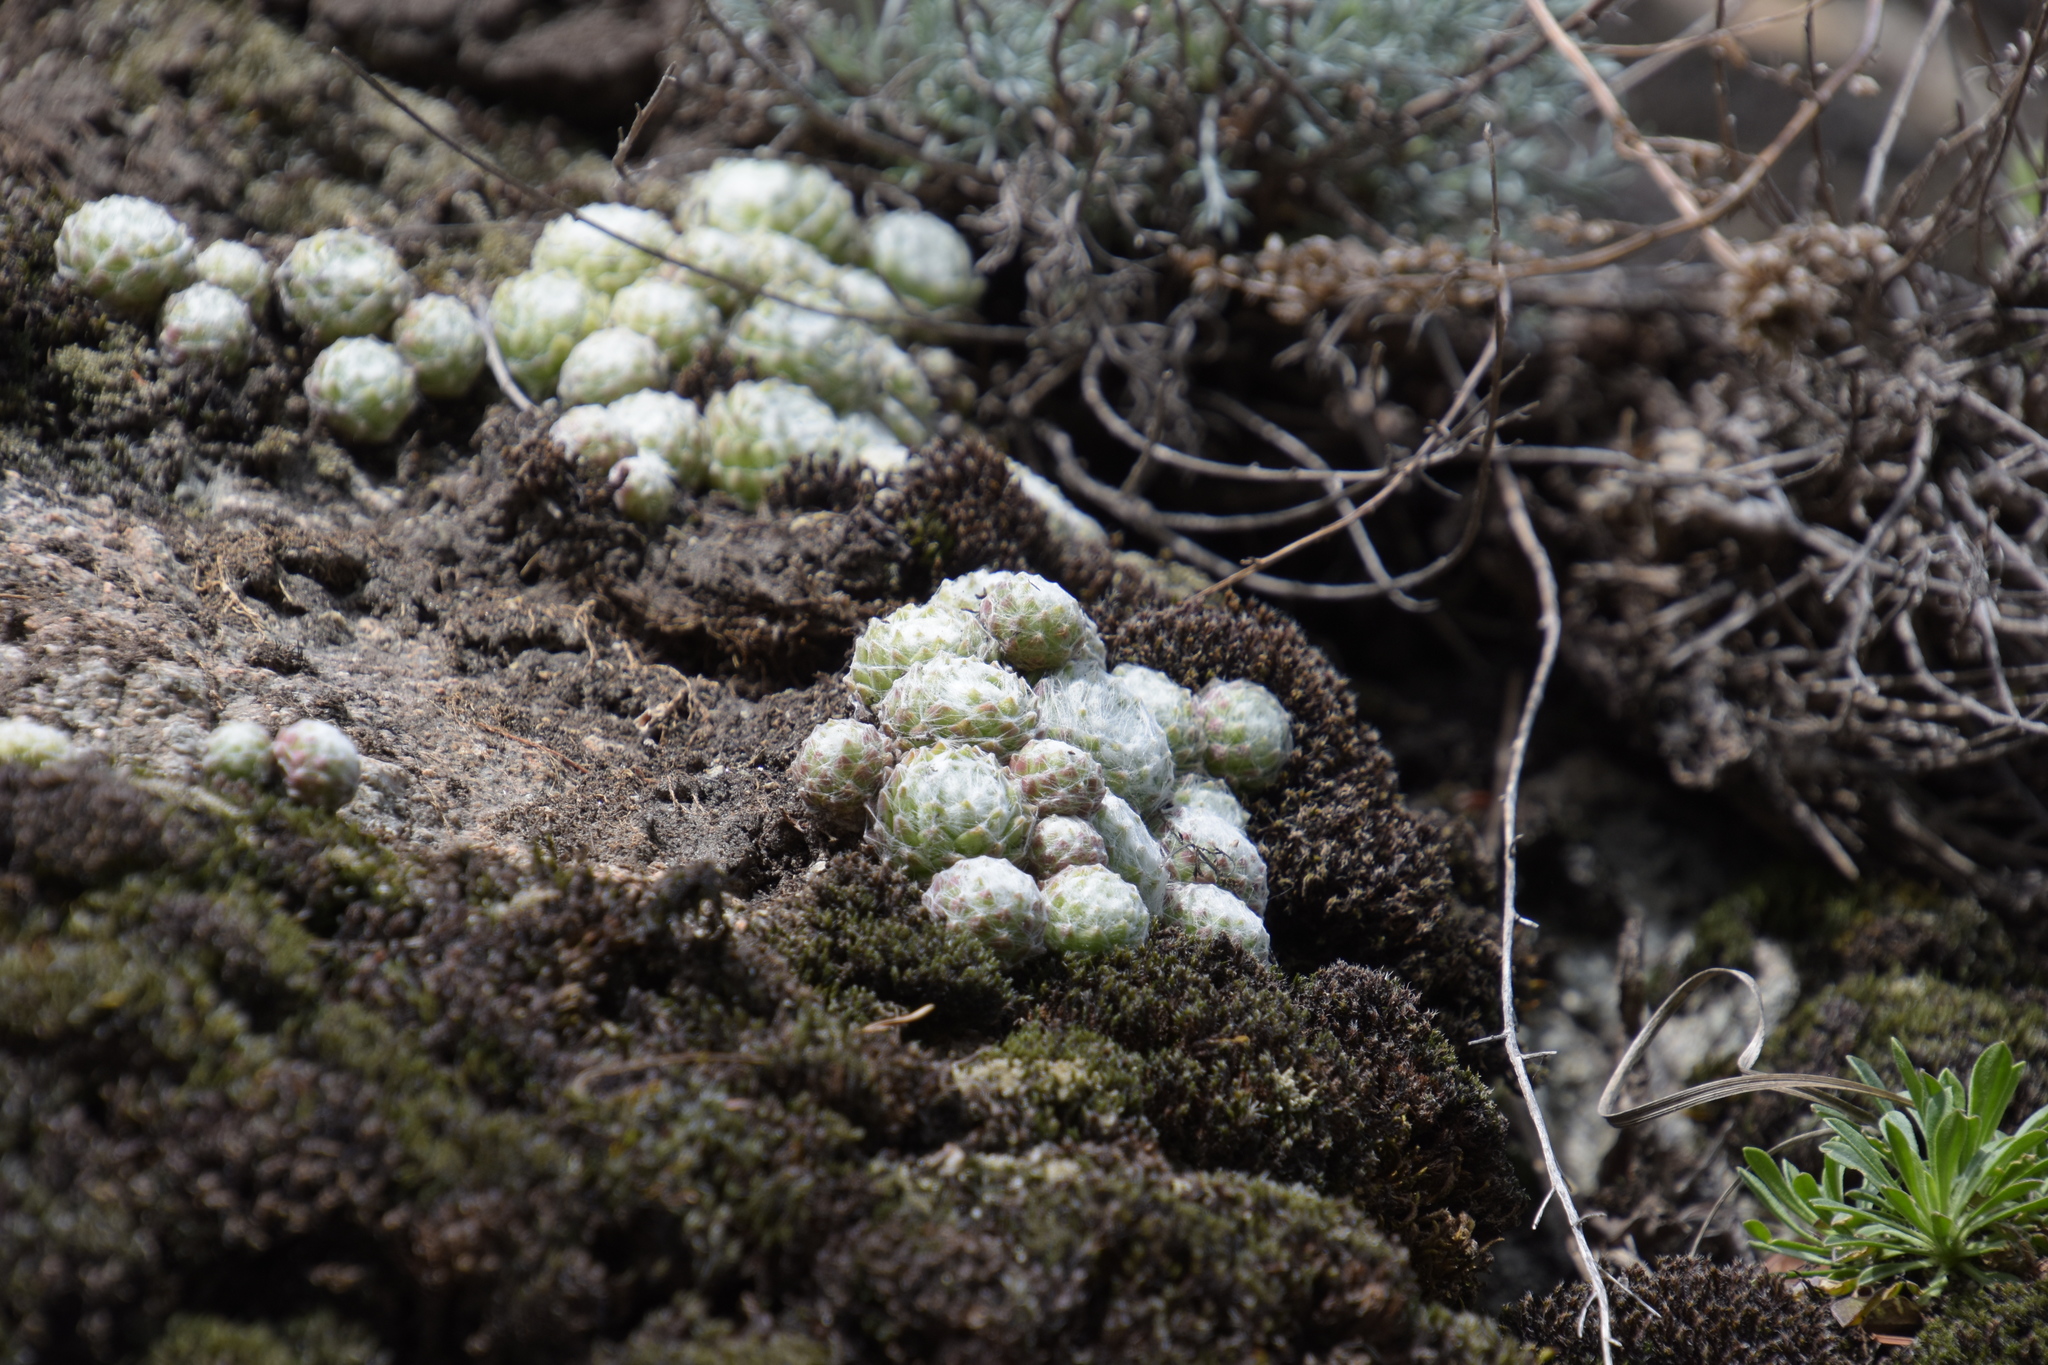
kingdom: Plantae
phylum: Tracheophyta
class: Magnoliopsida
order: Saxifragales
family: Crassulaceae
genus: Sempervivum
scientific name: Sempervivum arachnoideum
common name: Cobweb house-leek
